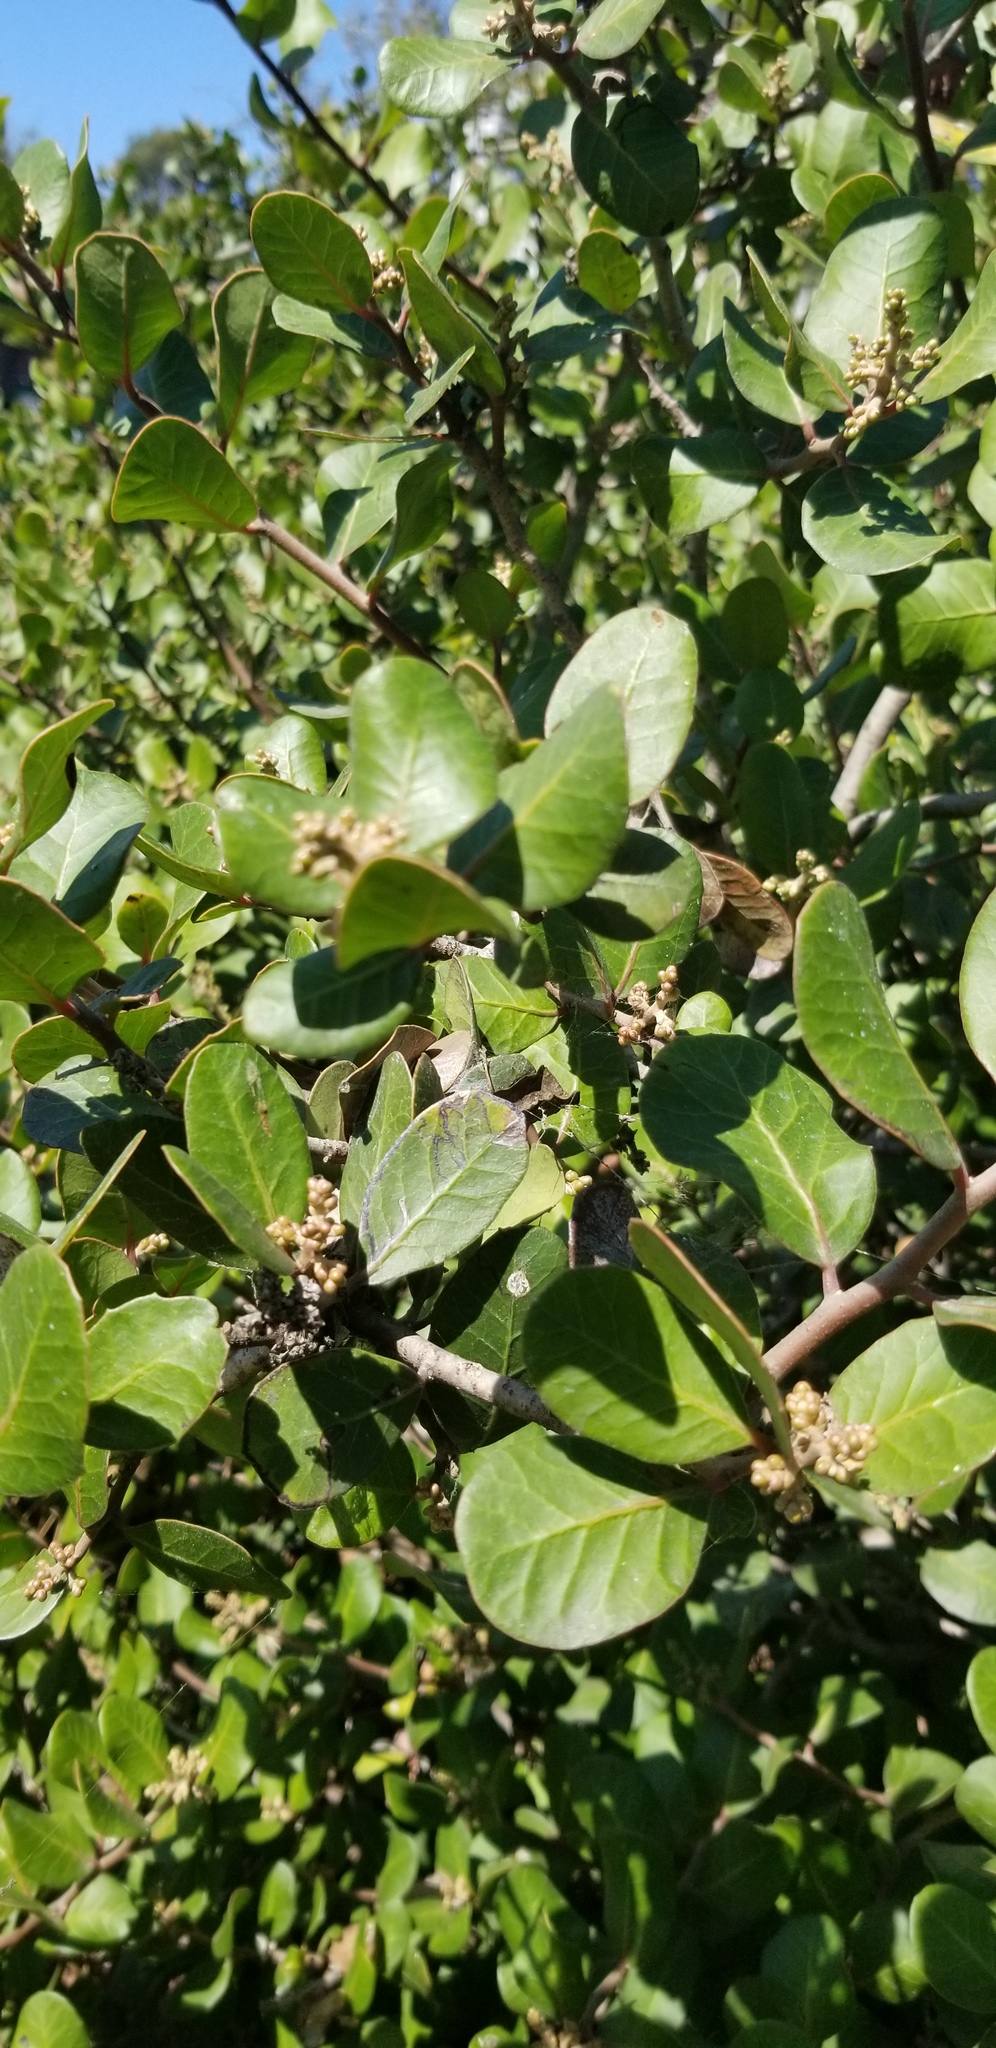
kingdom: Plantae
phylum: Tracheophyta
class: Magnoliopsida
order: Sapindales
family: Anacardiaceae
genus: Rhus
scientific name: Rhus integrifolia
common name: Lemonade sumac
